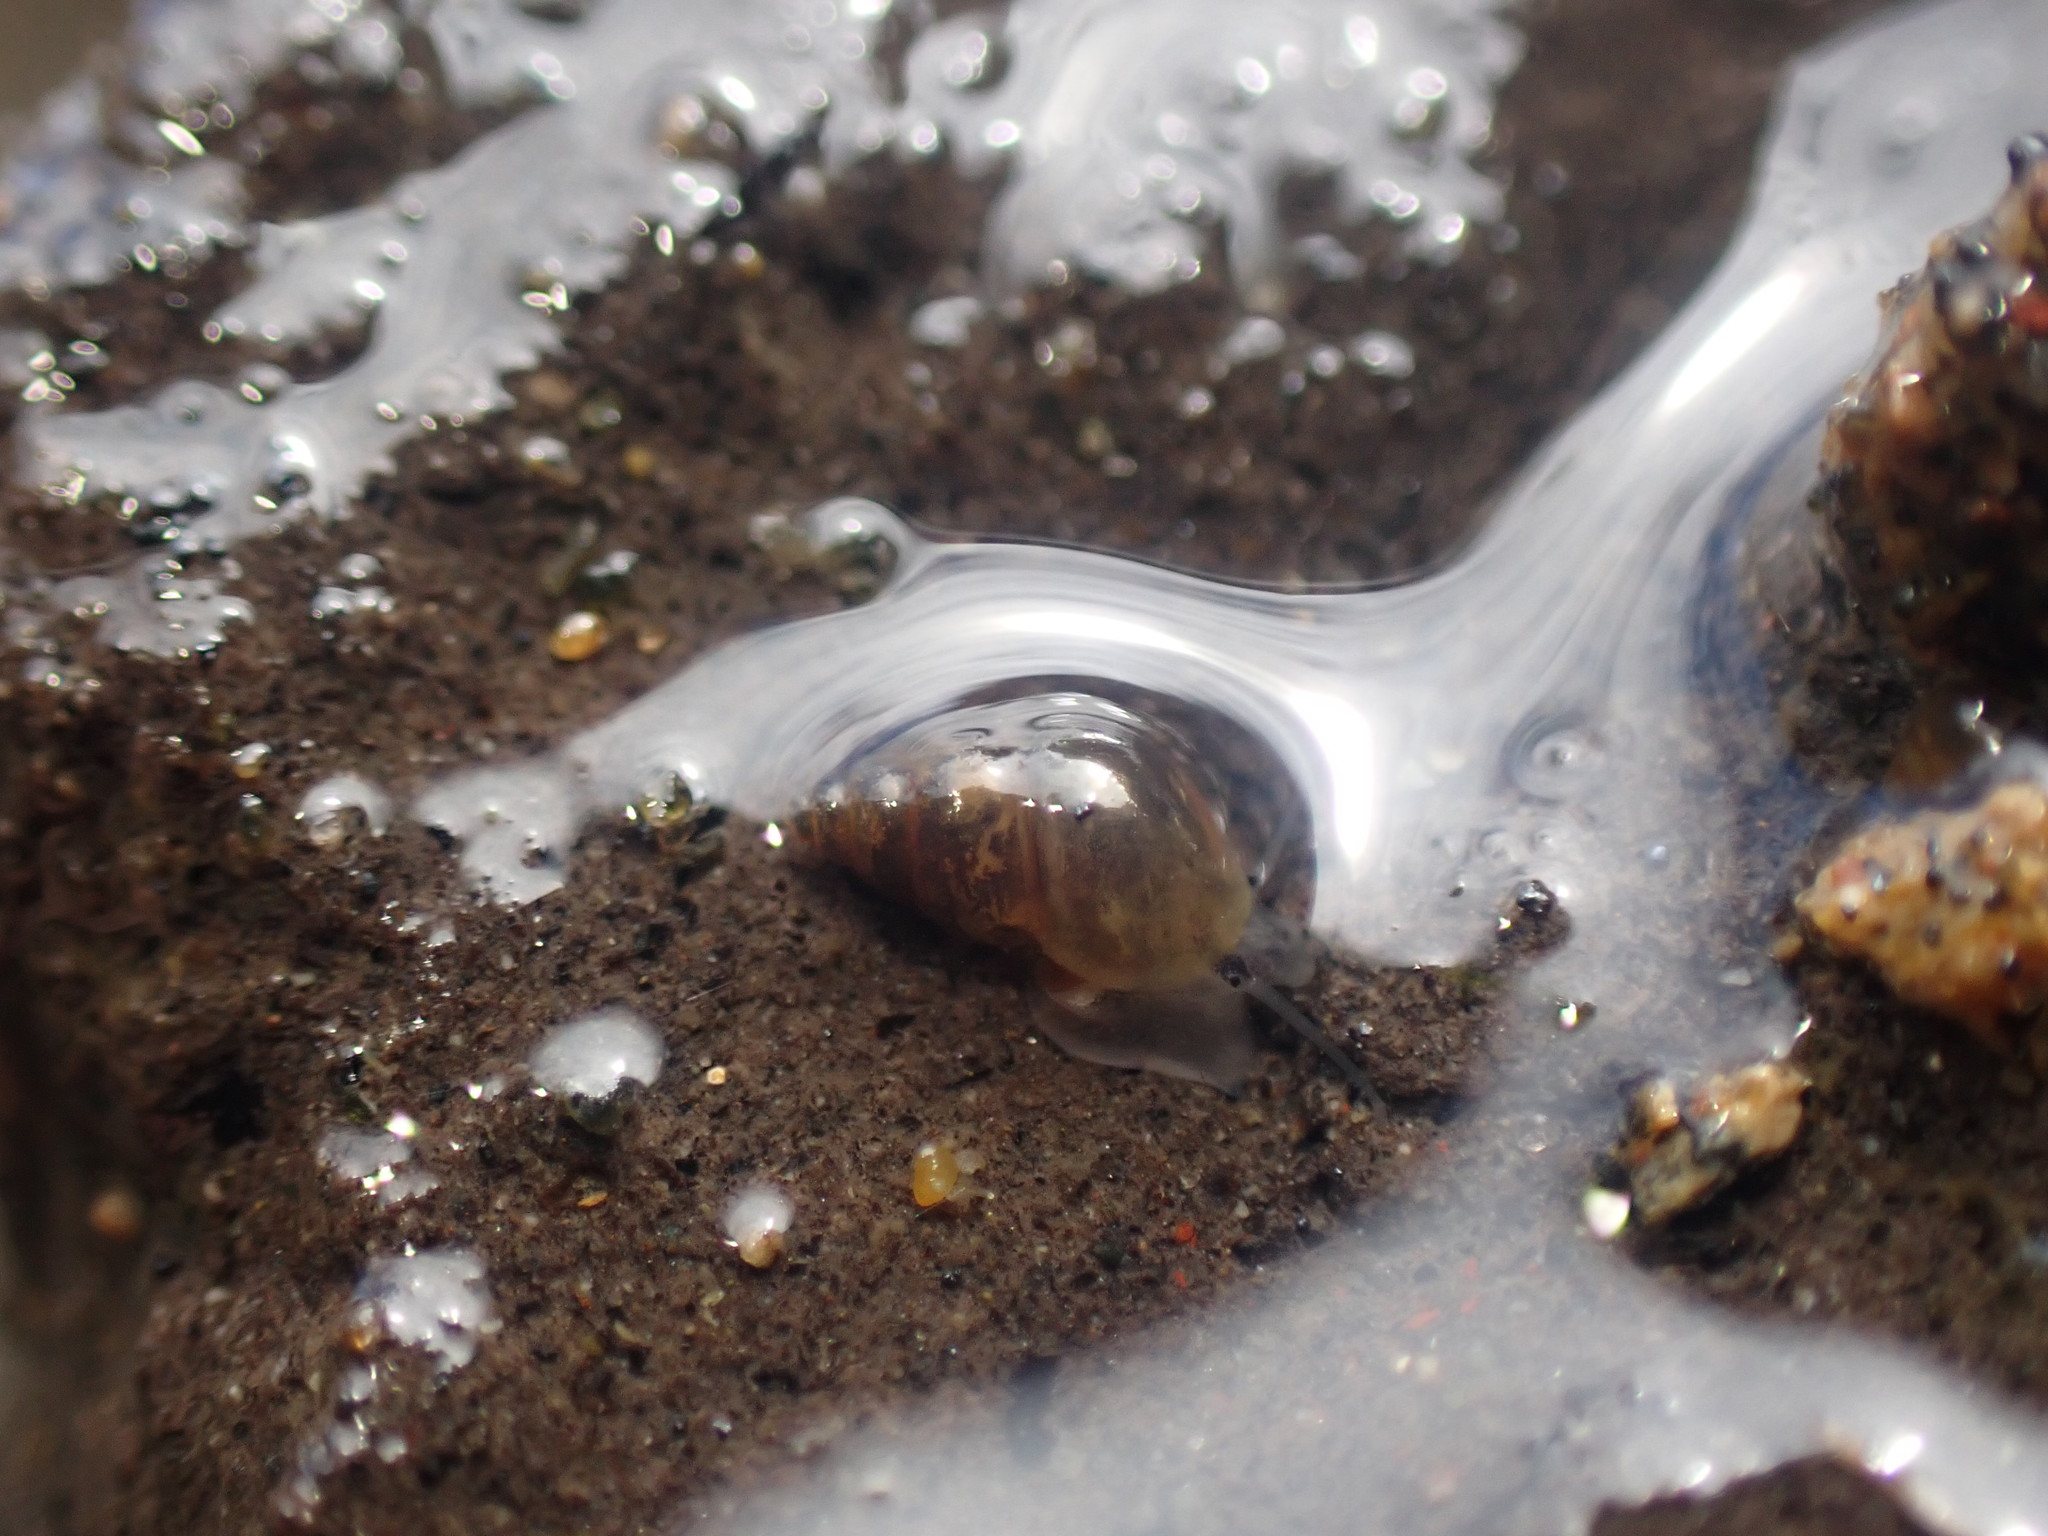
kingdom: Animalia
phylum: Mollusca
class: Gastropoda
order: Littorinimorpha
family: Tateidae
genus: Potamopyrgus
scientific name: Potamopyrgus antipodarum
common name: Jenkins' spire snail
